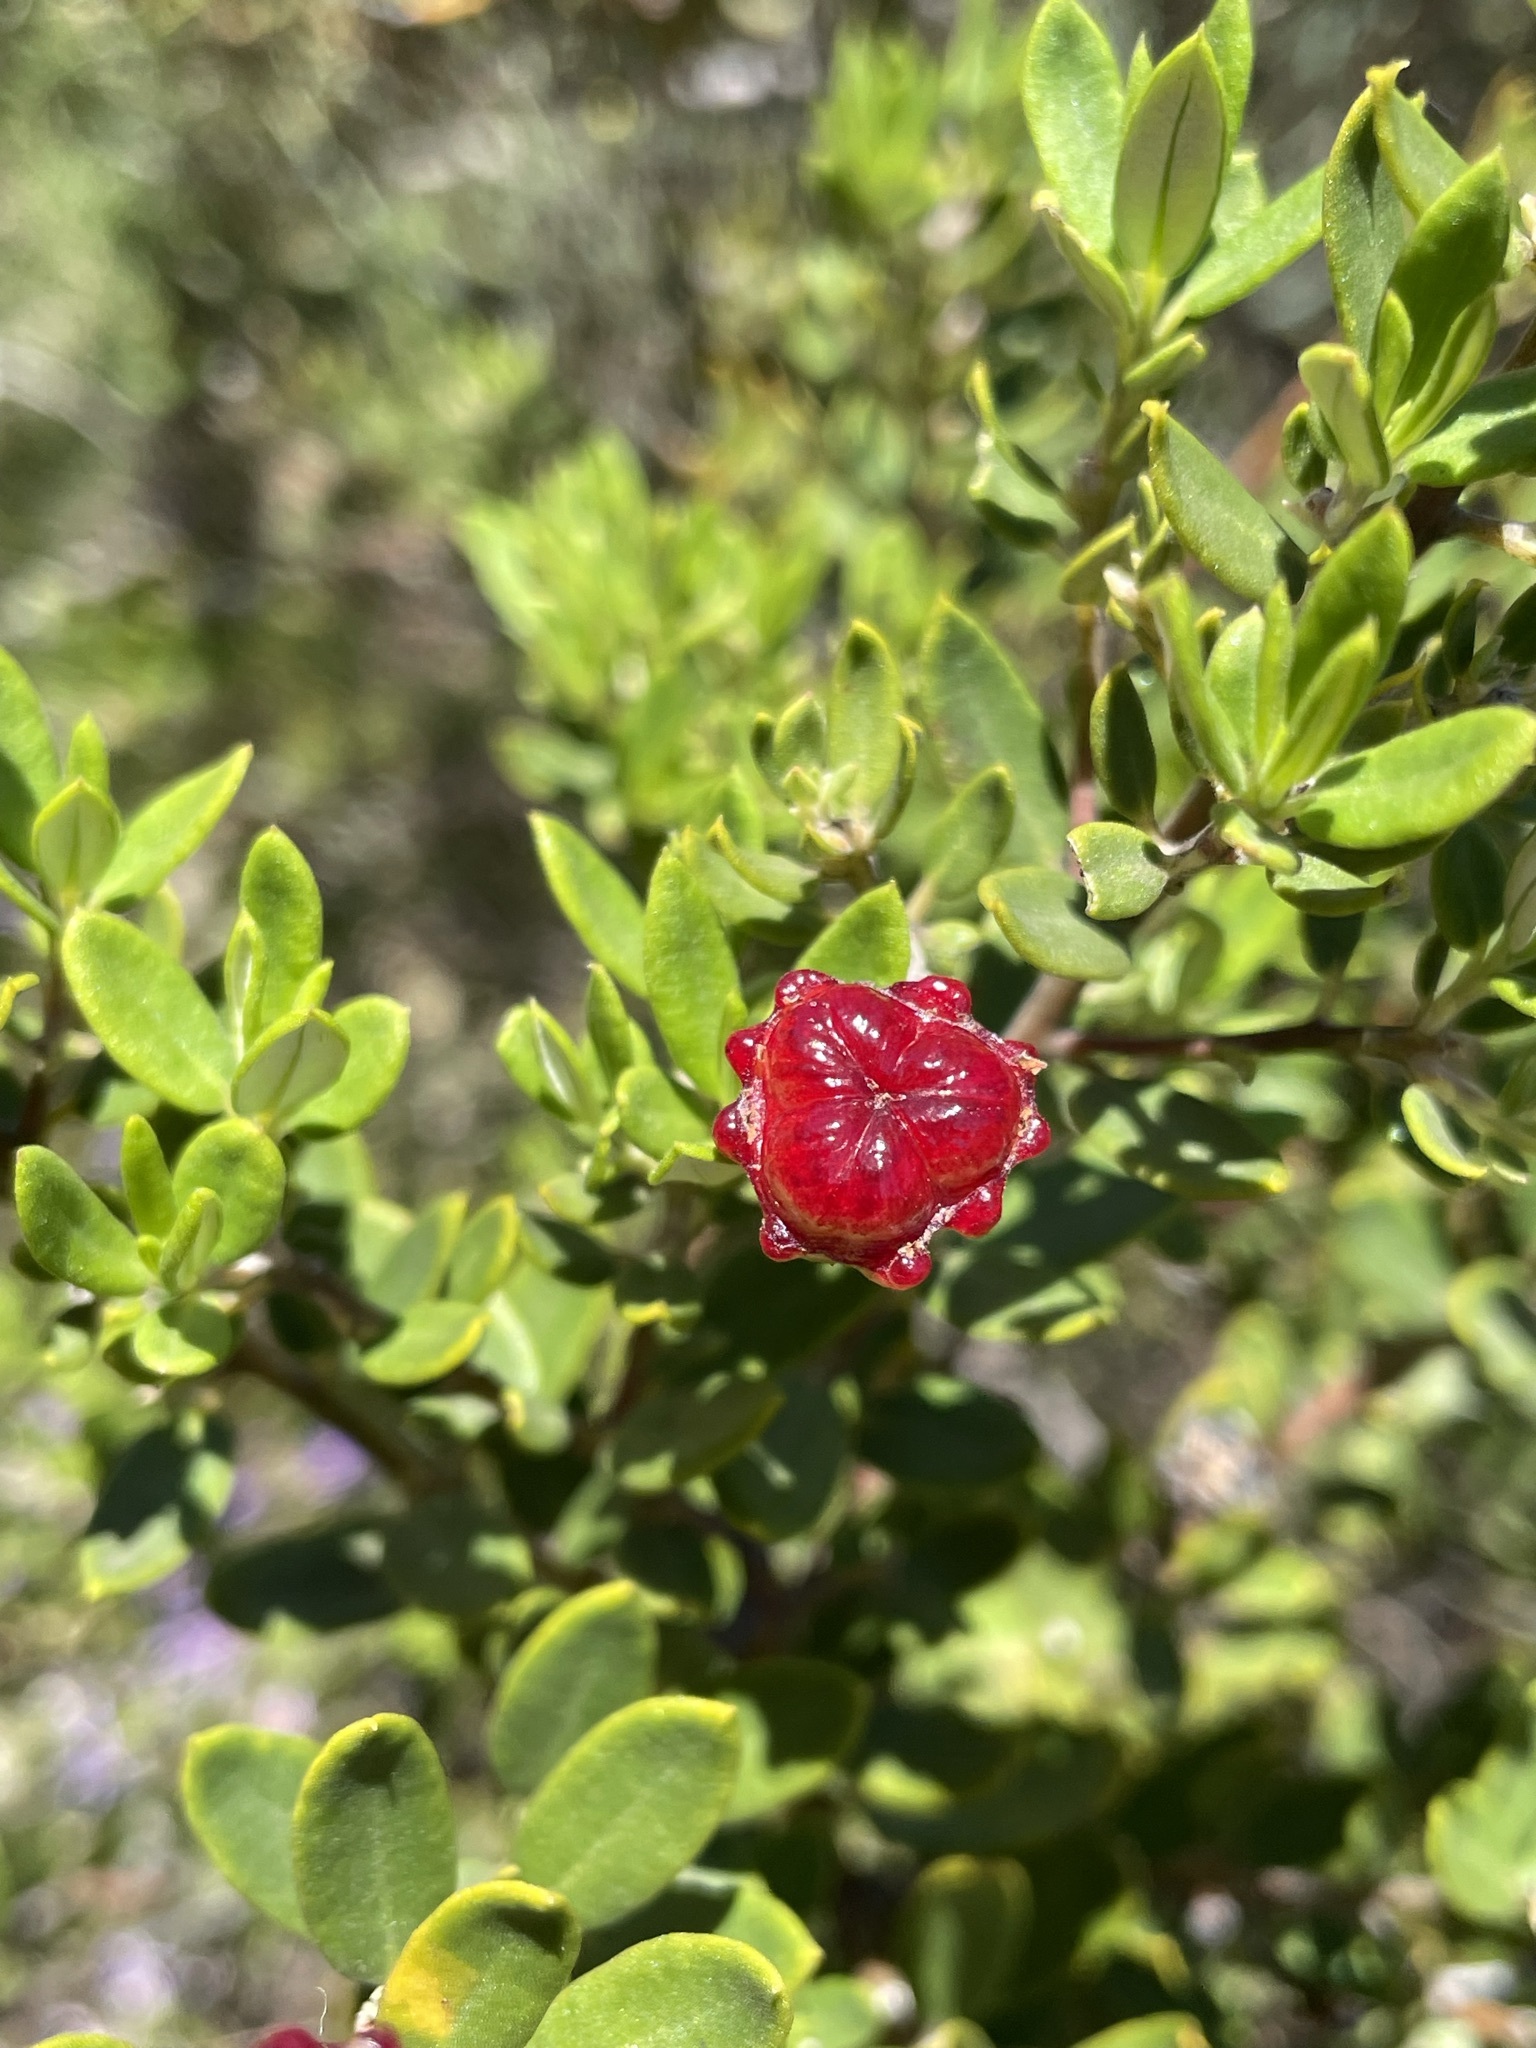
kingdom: Plantae
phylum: Tracheophyta
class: Magnoliopsida
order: Rosales
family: Rhamnaceae
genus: Phylica
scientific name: Phylica oleifolia
